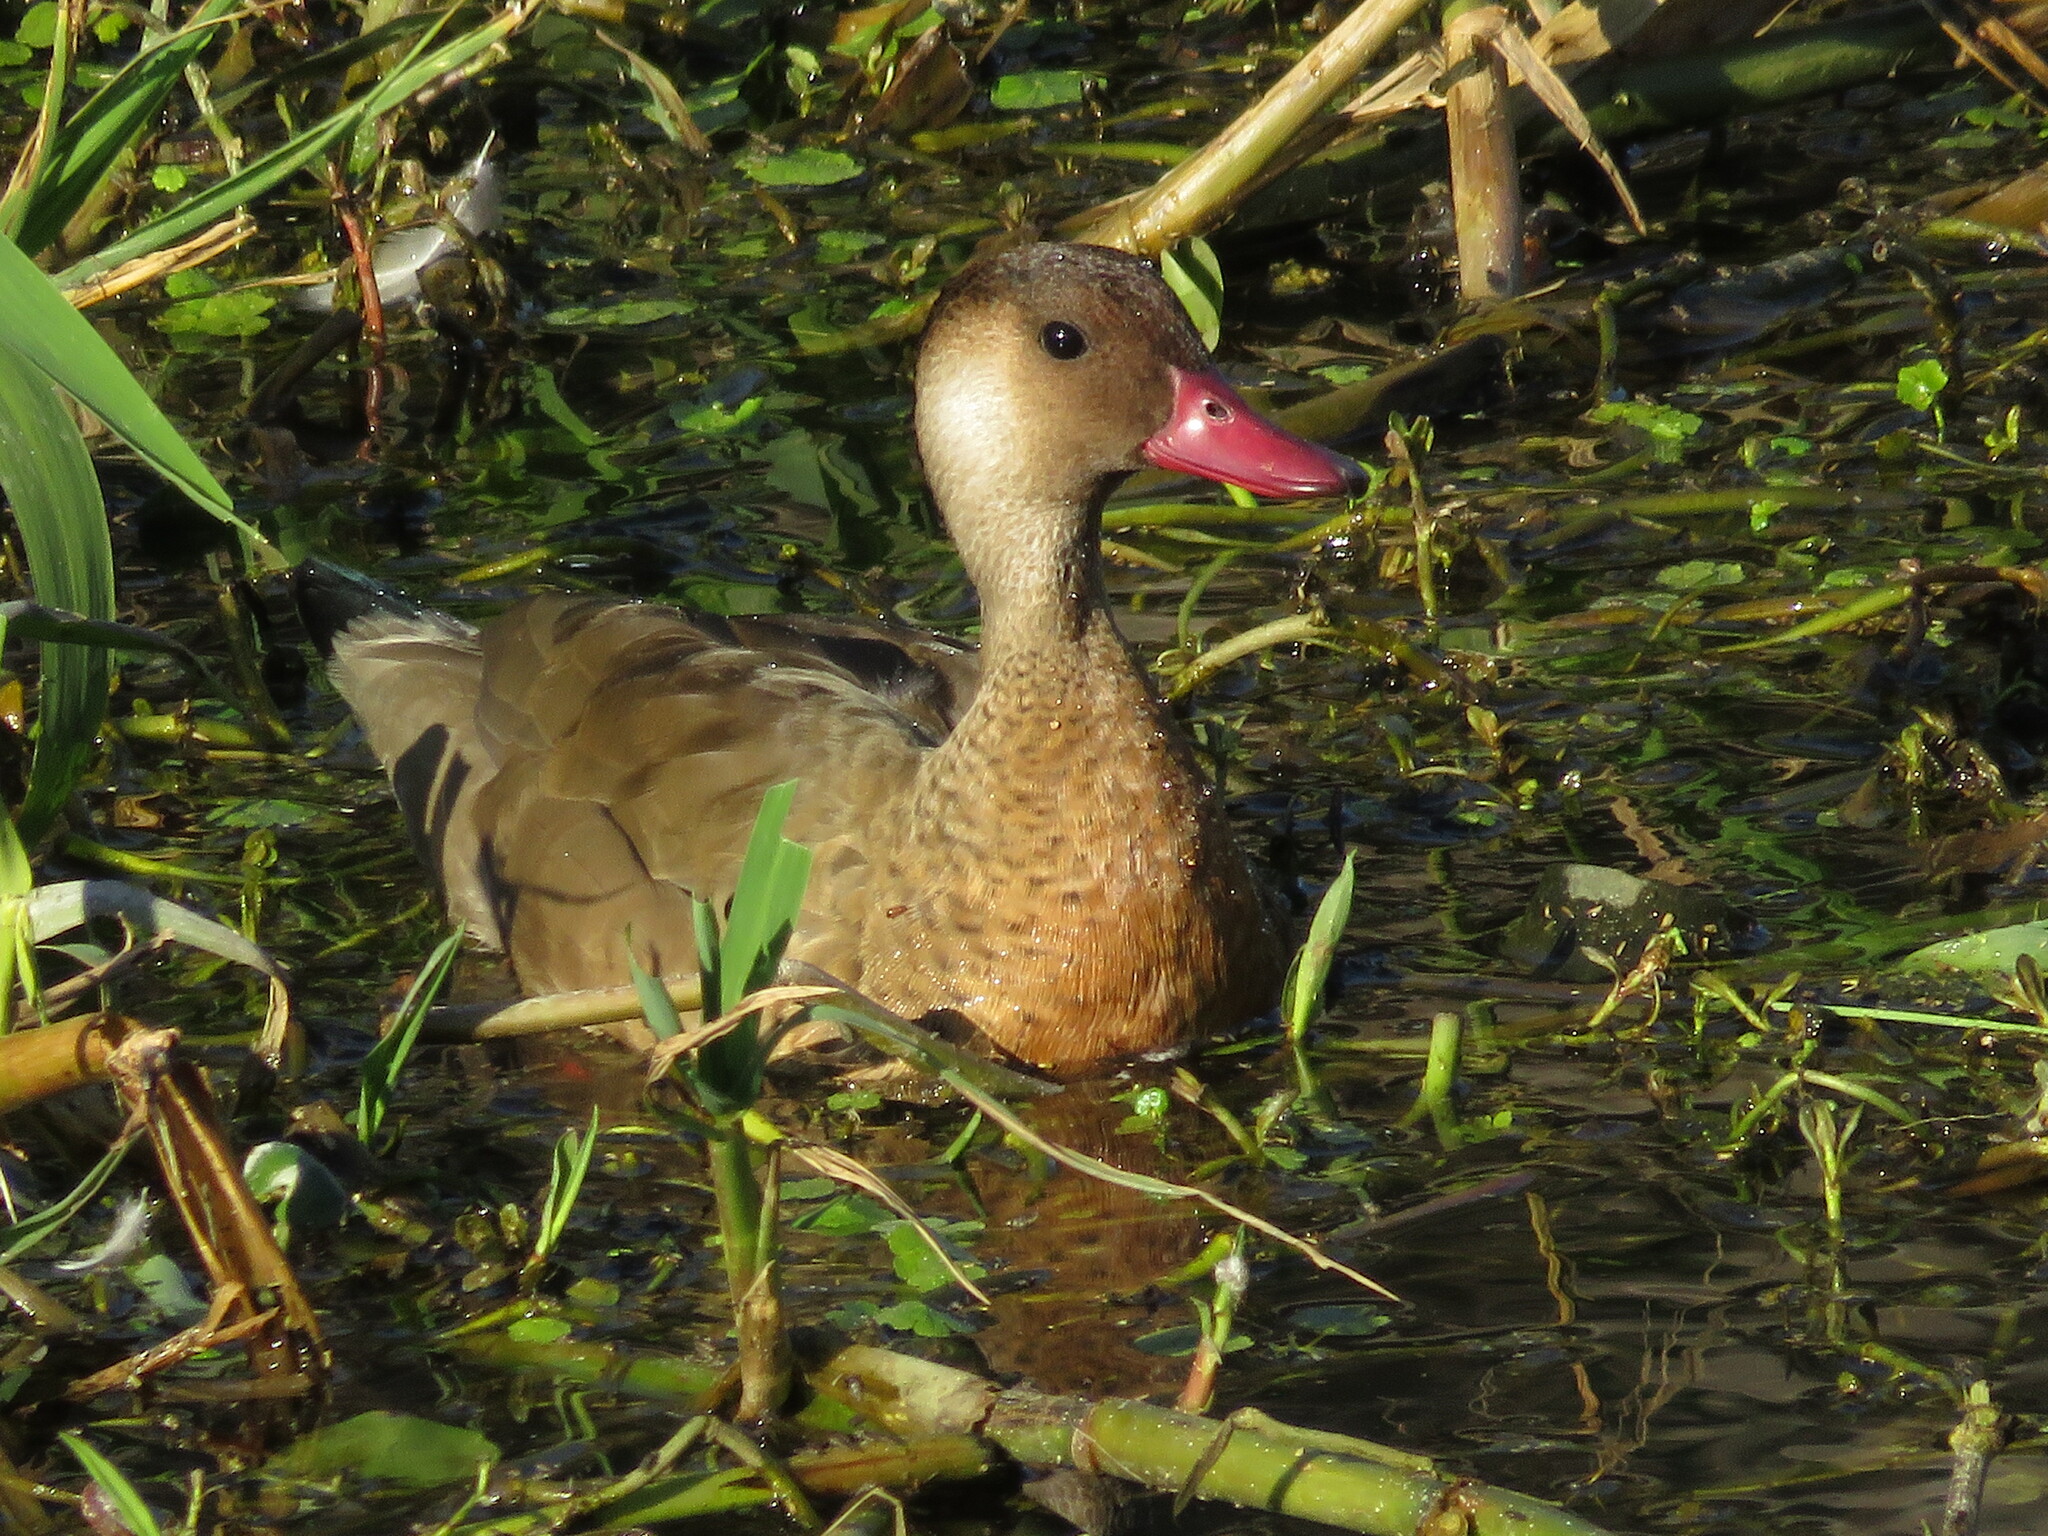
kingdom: Animalia
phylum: Chordata
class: Aves
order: Anseriformes
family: Anatidae
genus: Amazonetta
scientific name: Amazonetta brasiliensis
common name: Brazilian teal
